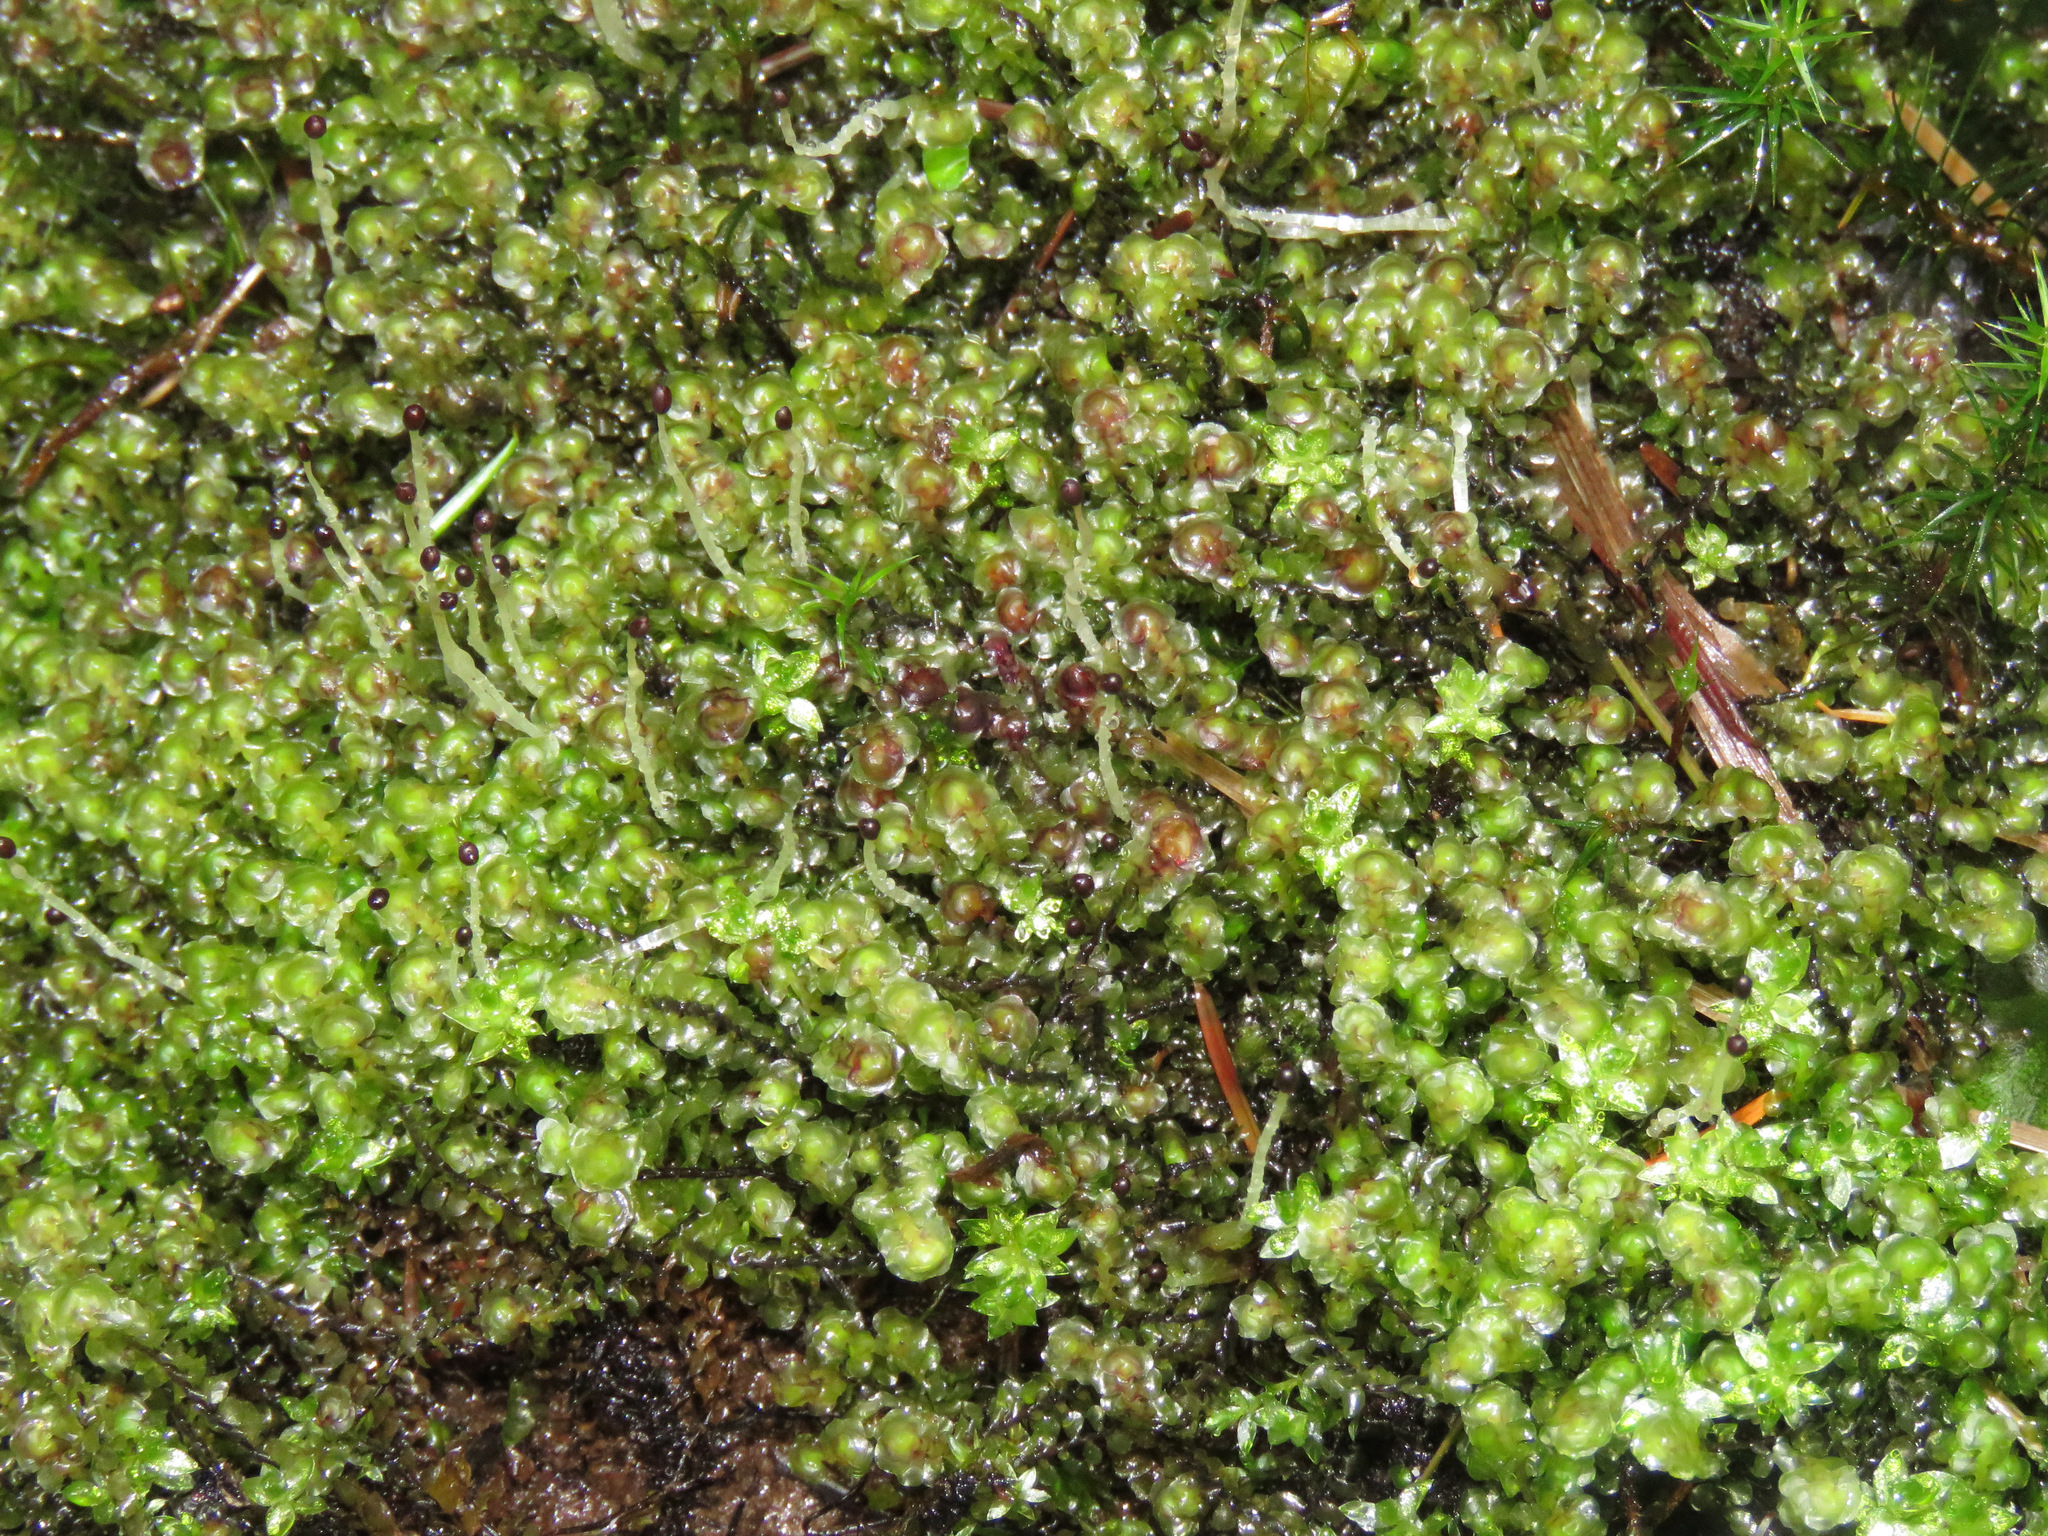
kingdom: Plantae
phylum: Marchantiophyta
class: Jungermanniopsida
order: Jungermanniales
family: Scapaniaceae
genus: Scapania
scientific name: Scapania bolanderi
